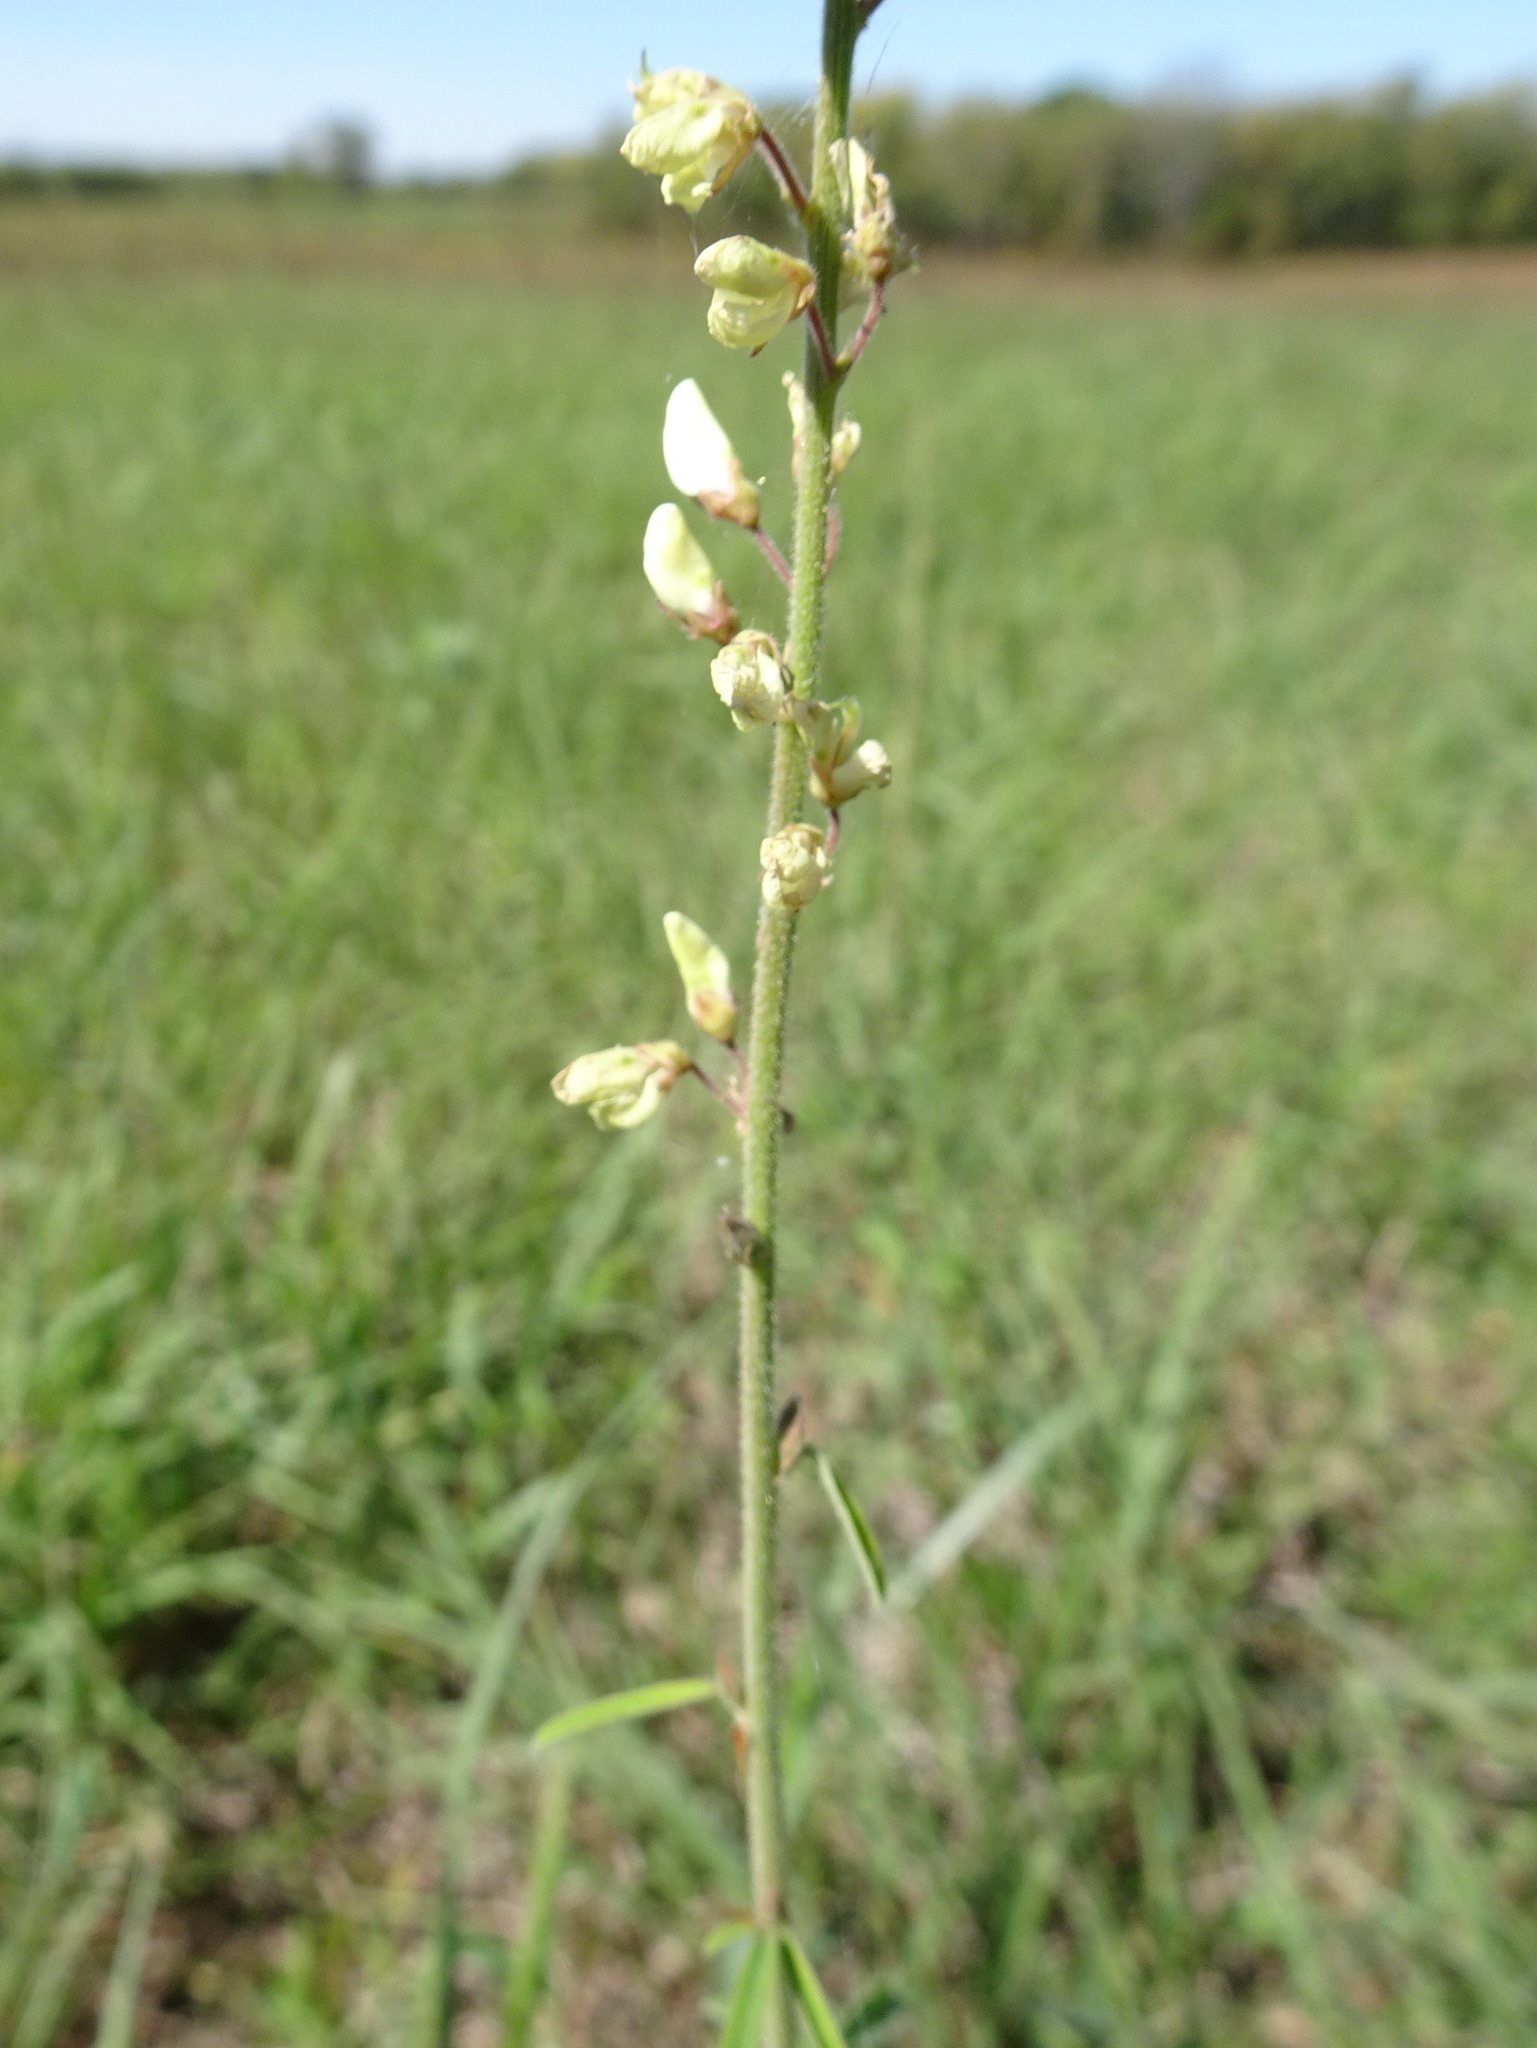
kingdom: Plantae
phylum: Tracheophyta
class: Magnoliopsida
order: Fabales
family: Fabaceae
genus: Desmodium
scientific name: Desmodium sessilifolium
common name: Sessile tick-clover
